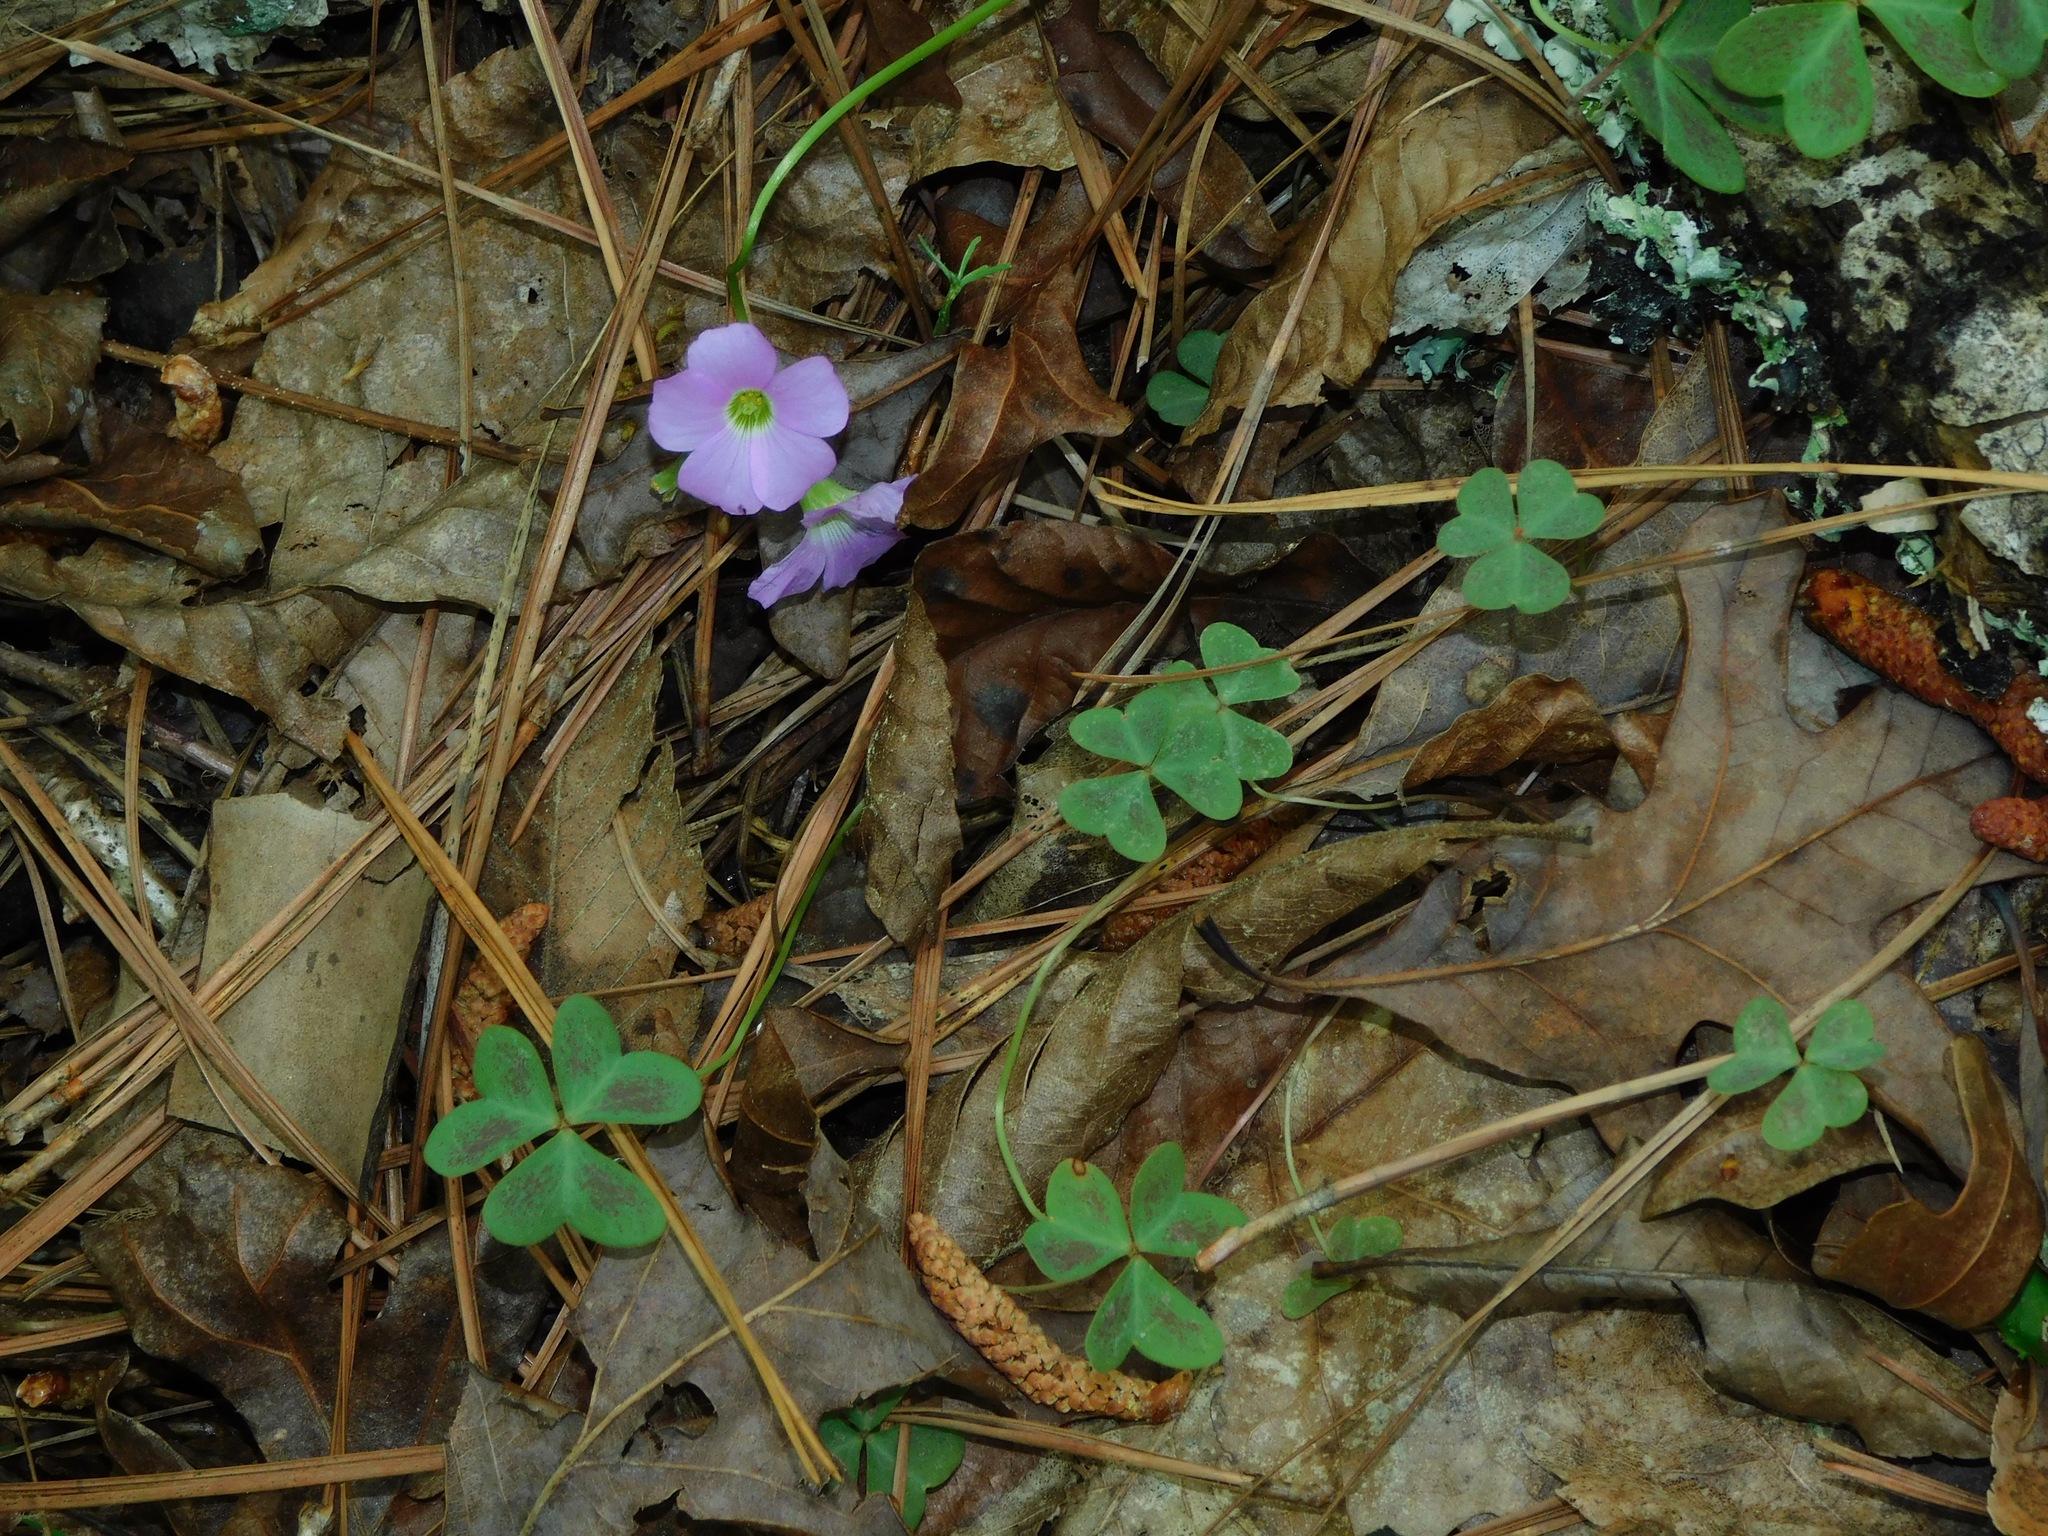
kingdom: Plantae
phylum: Tracheophyta
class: Magnoliopsida
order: Oxalidales
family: Oxalidaceae
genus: Oxalis
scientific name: Oxalis violacea
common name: Violet wood-sorrel
